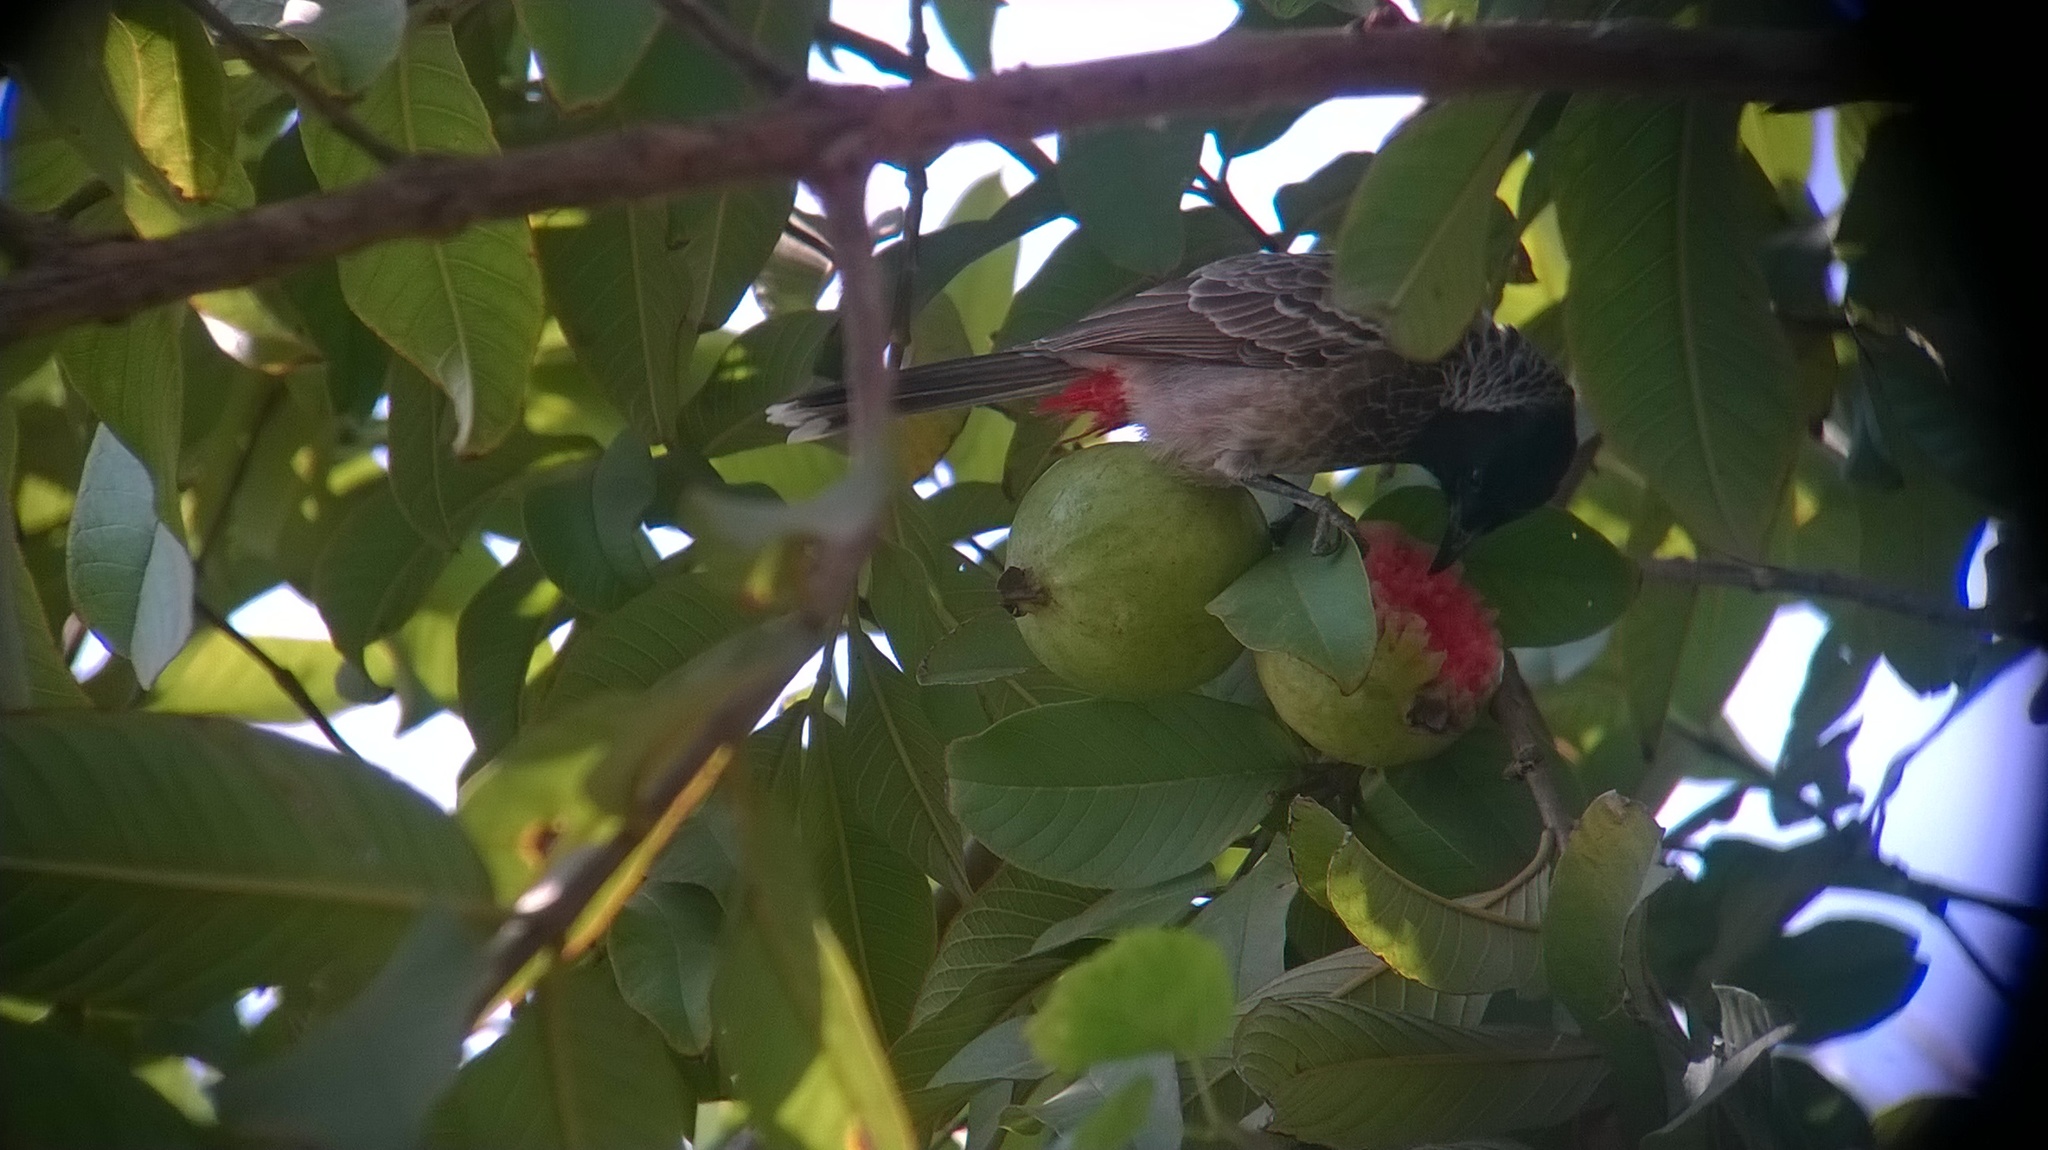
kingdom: Animalia
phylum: Chordata
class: Aves
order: Passeriformes
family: Pycnonotidae
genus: Pycnonotus
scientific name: Pycnonotus cafer
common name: Red-vented bulbul
